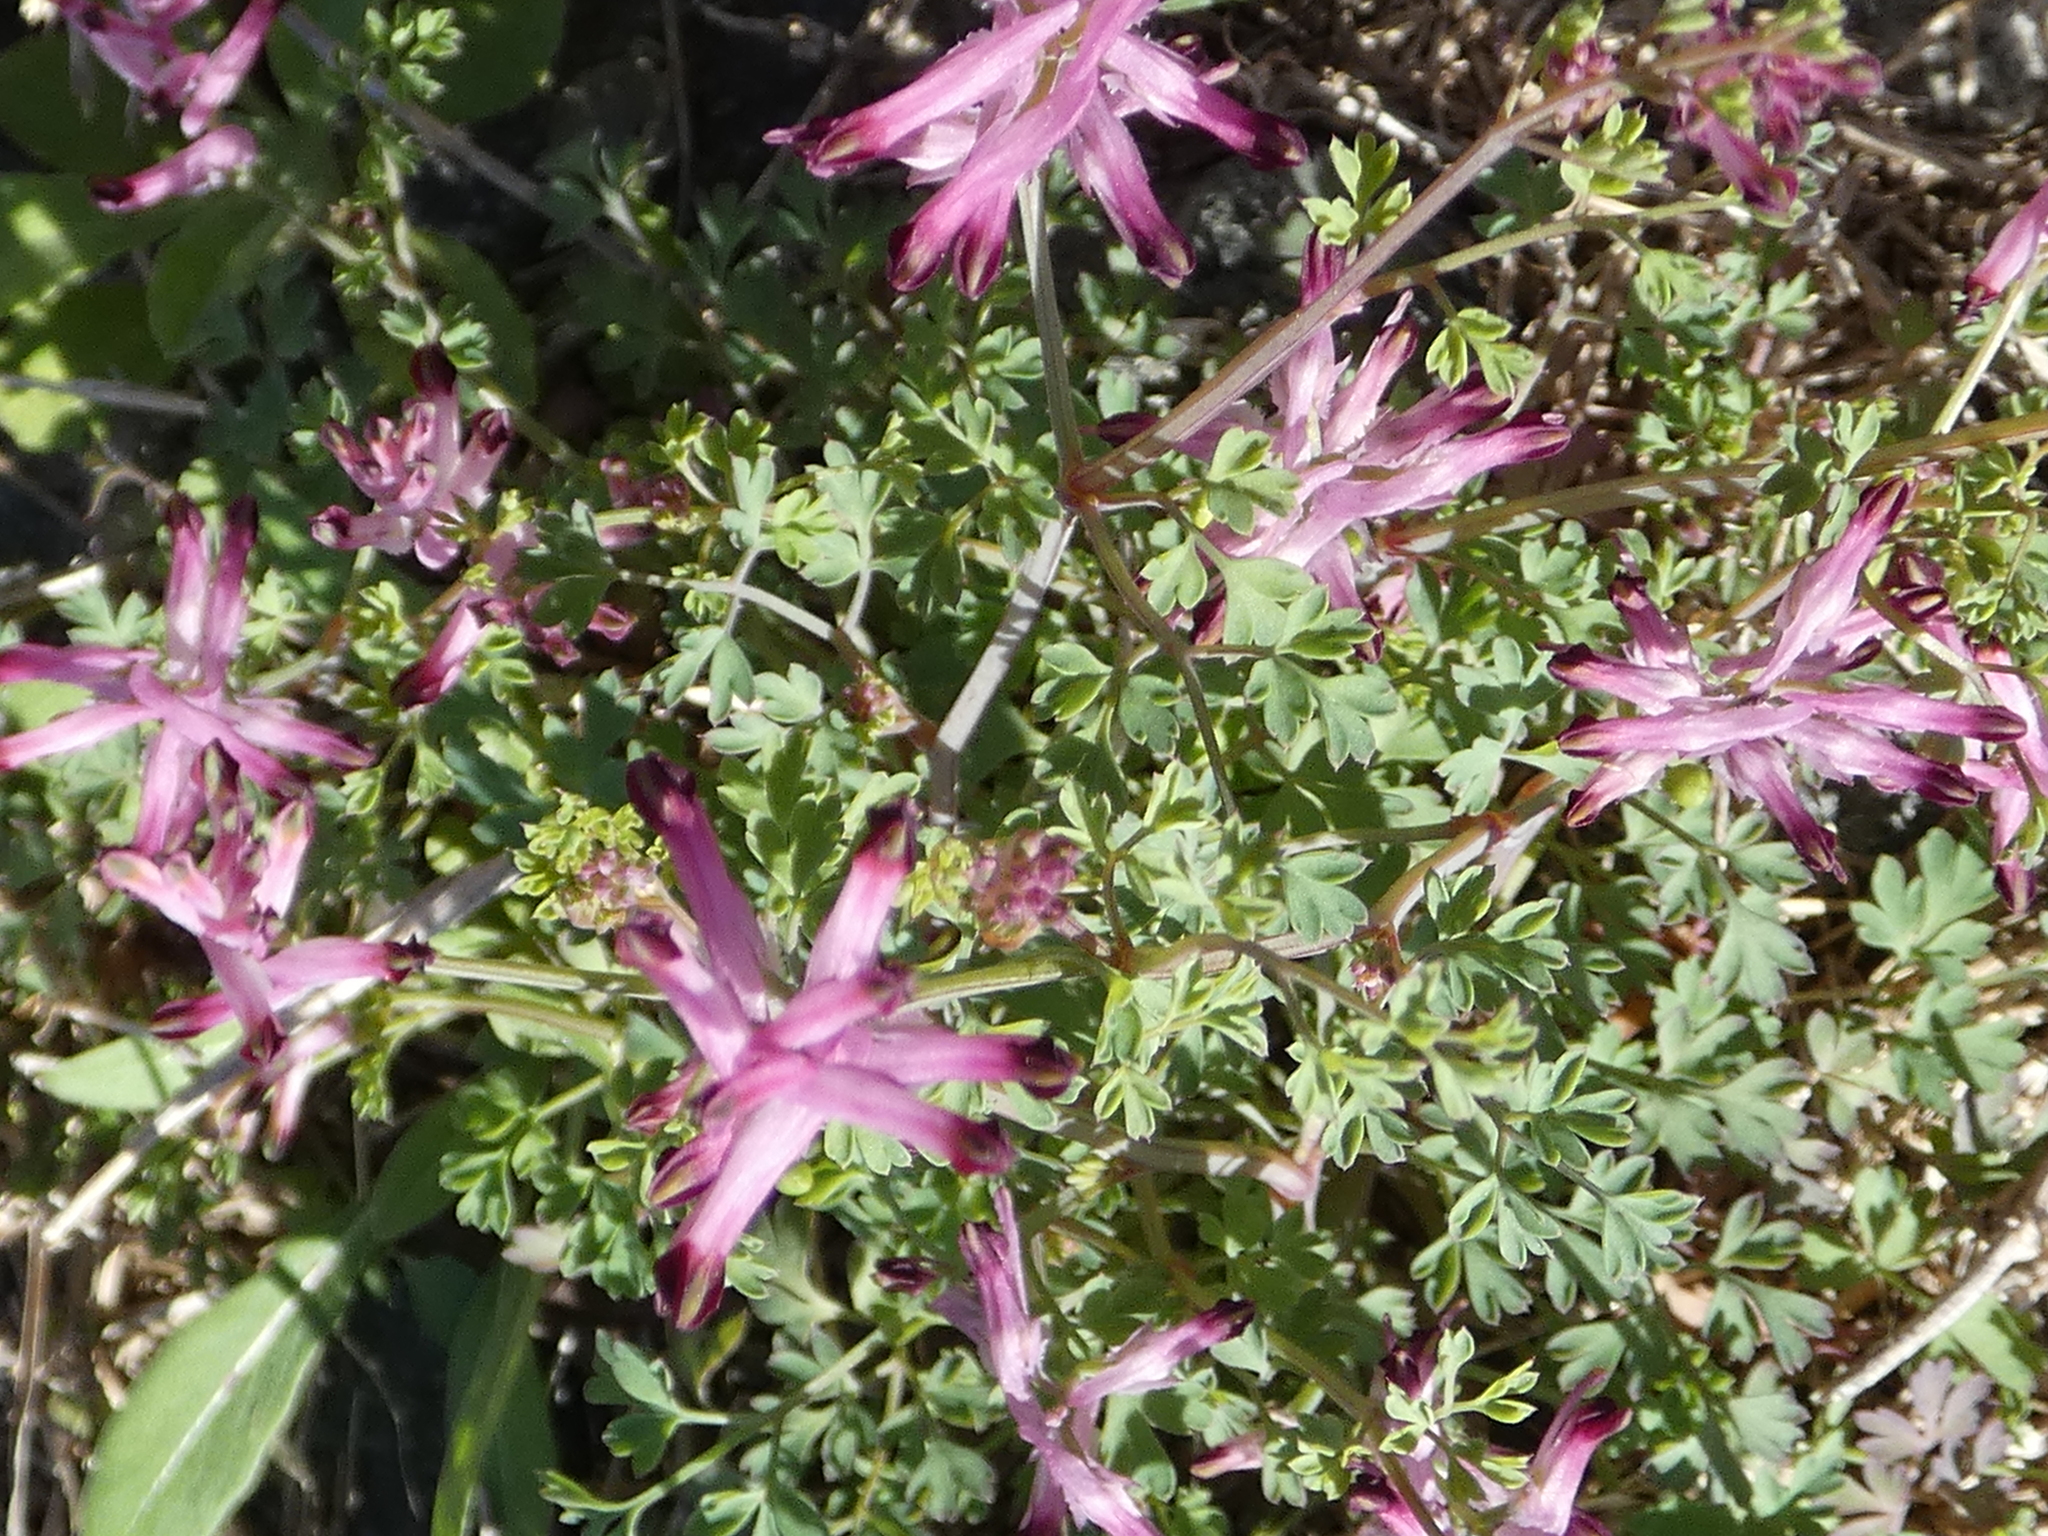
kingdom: Plantae
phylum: Tracheophyta
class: Magnoliopsida
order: Ranunculales
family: Papaveraceae
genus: Fumaria
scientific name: Fumaria bastardii
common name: Tall ramping-fumitory
